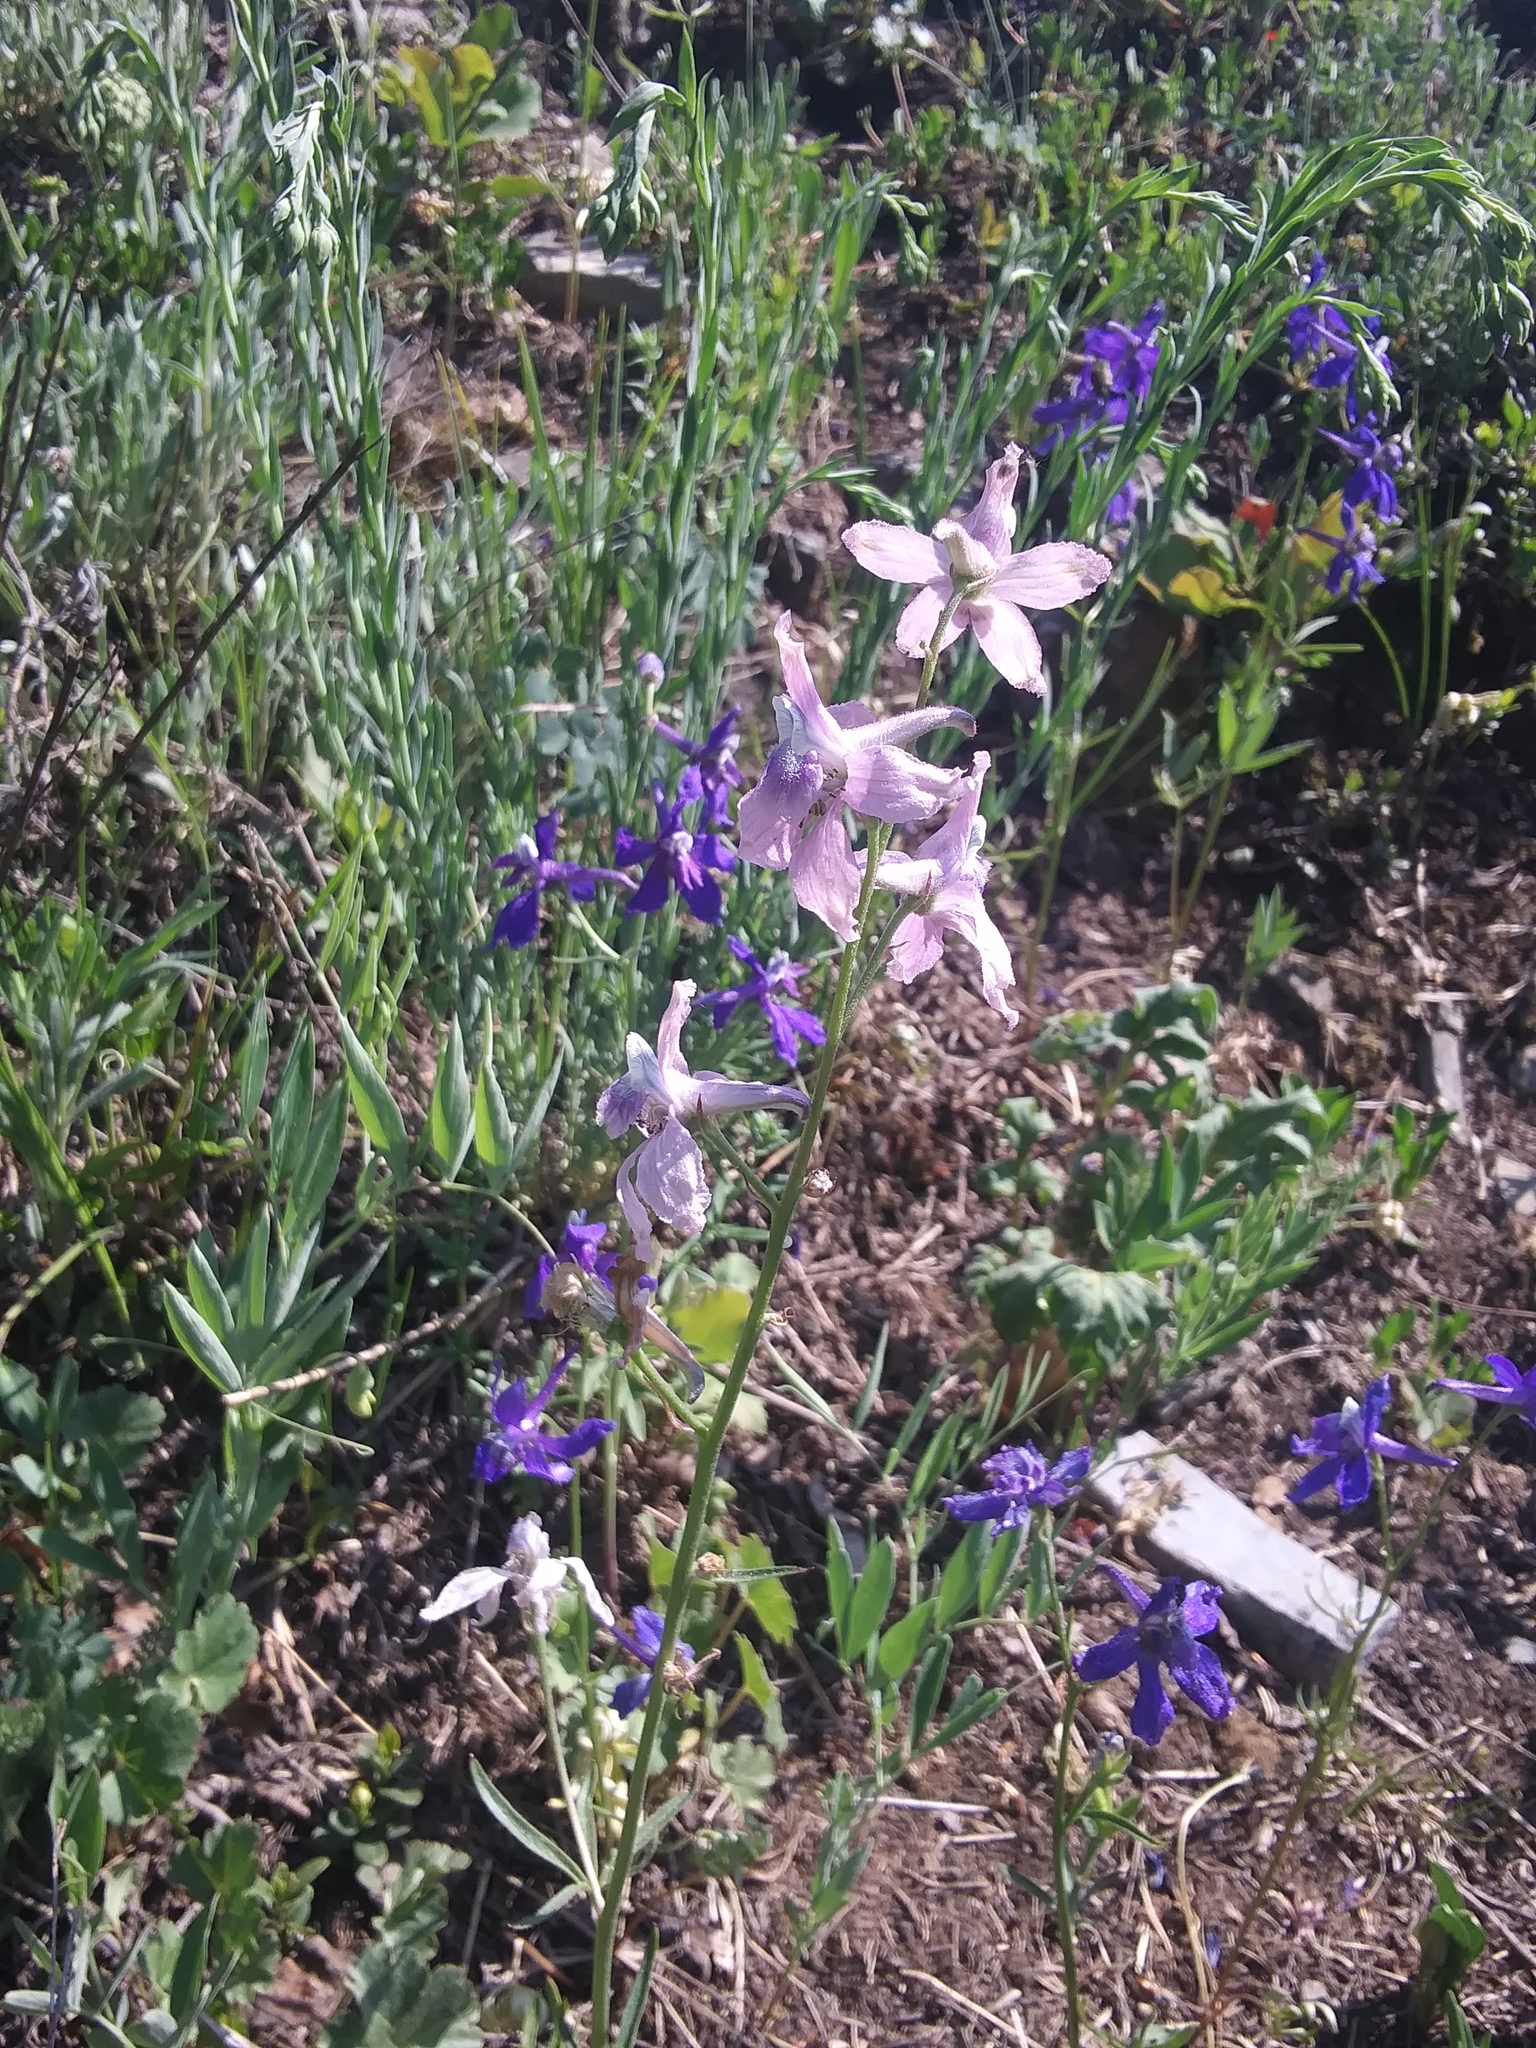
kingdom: Plantae
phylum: Tracheophyta
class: Magnoliopsida
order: Ranunculales
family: Ranunculaceae
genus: Delphinium
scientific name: Delphinium nuttallianum
